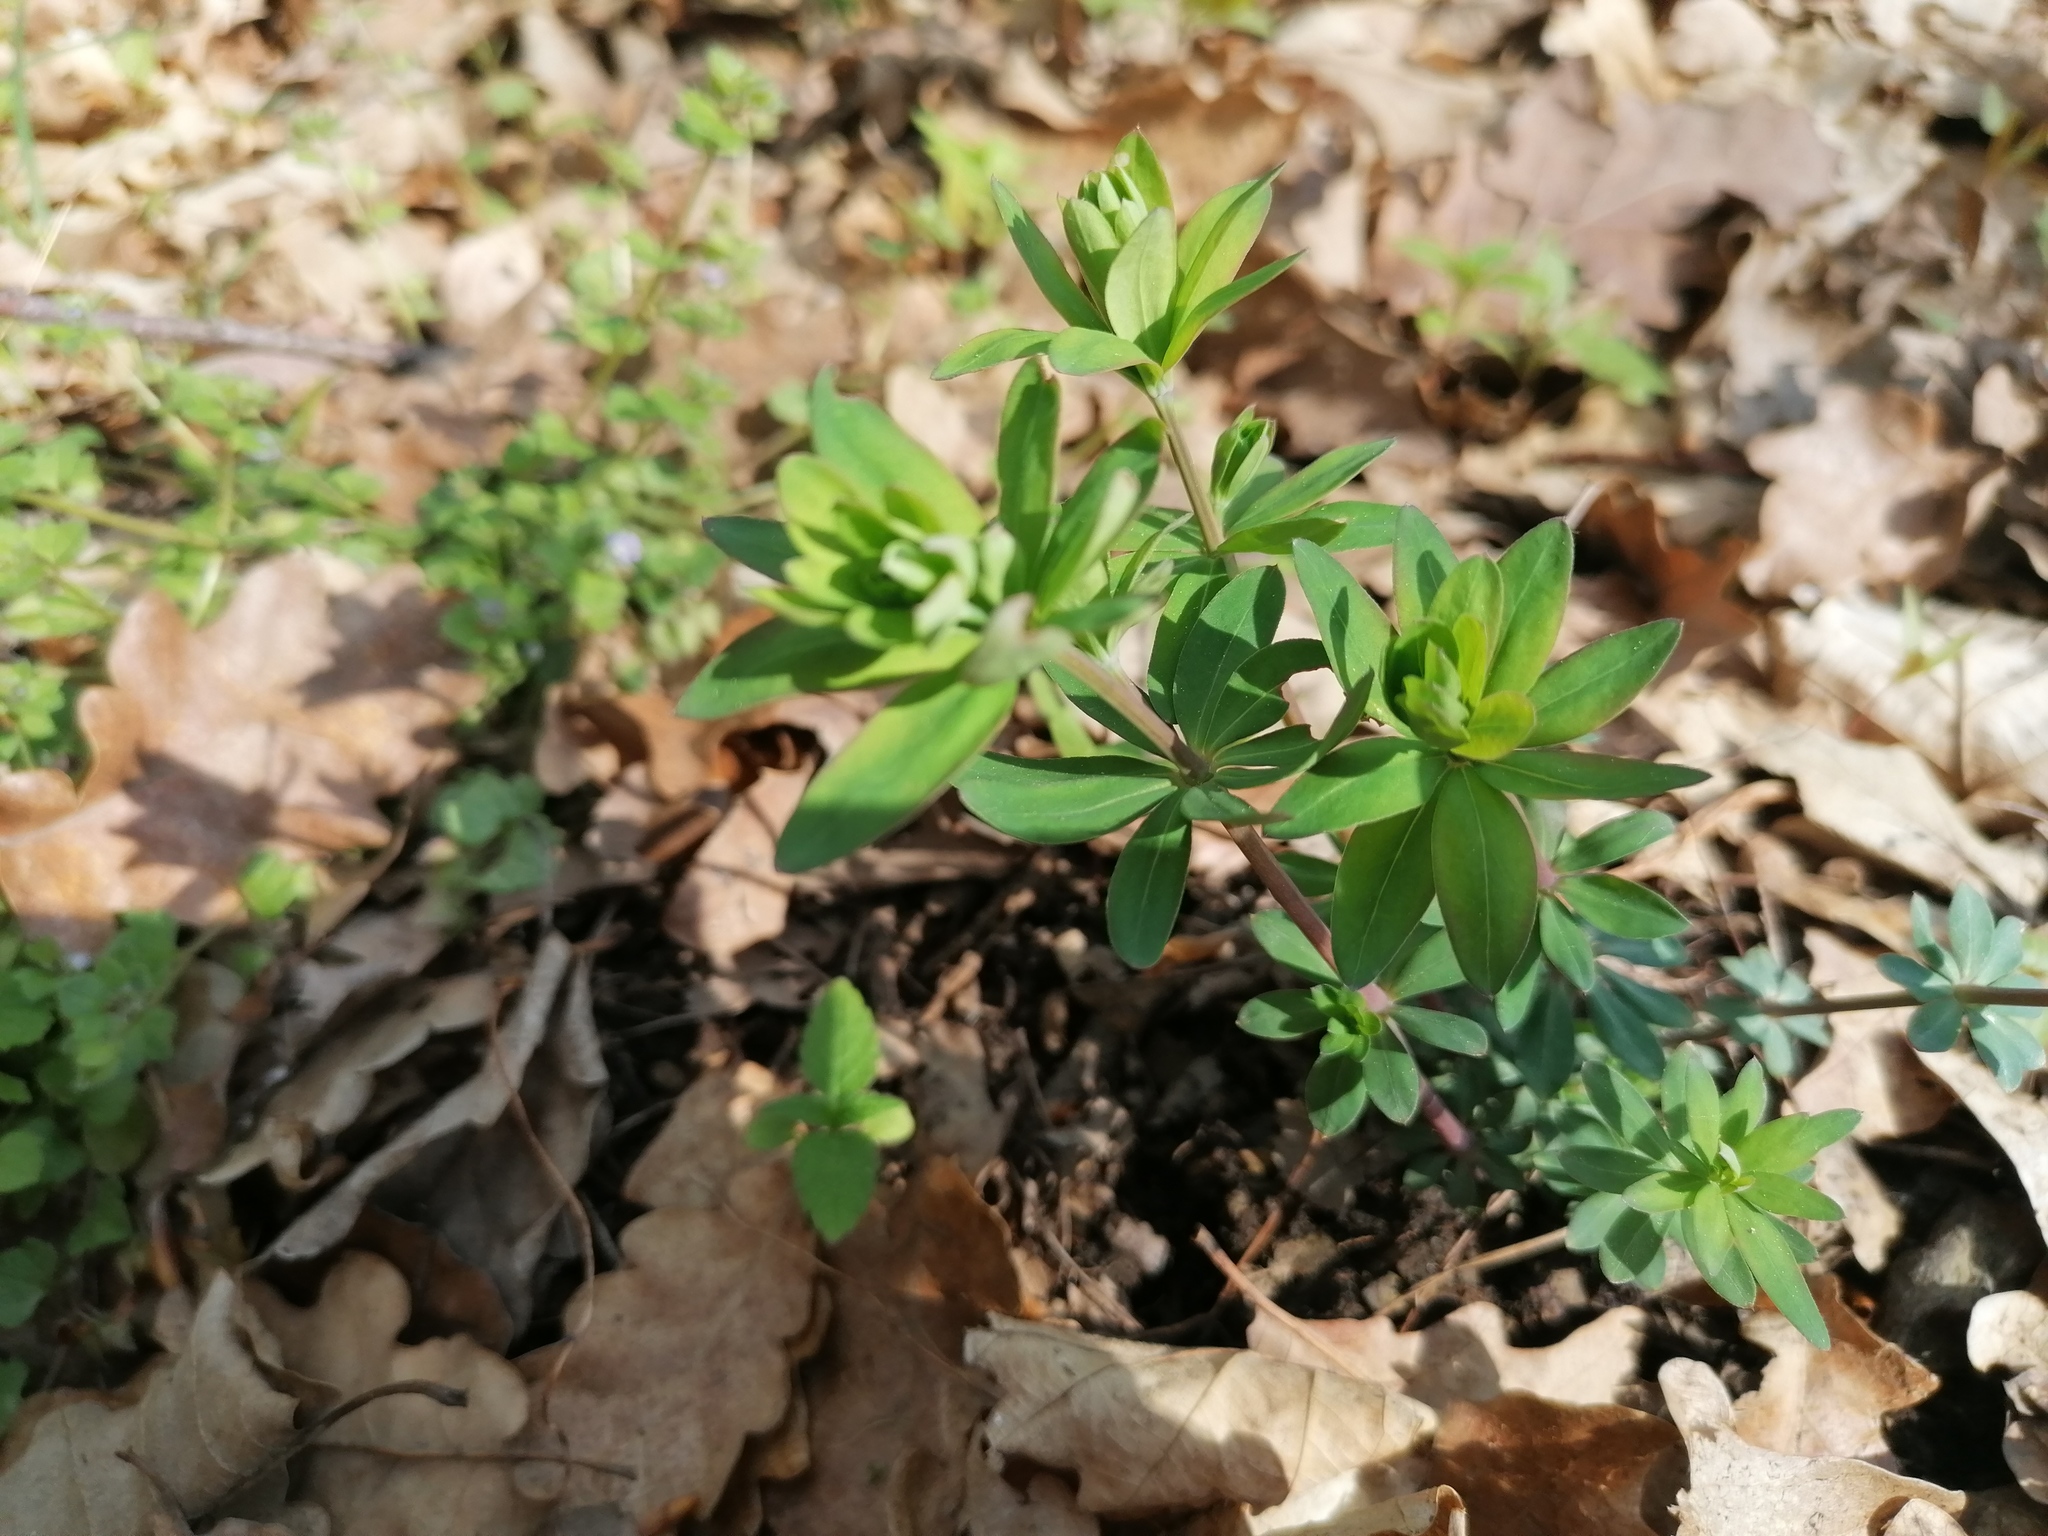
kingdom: Plantae
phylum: Tracheophyta
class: Magnoliopsida
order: Gentianales
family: Rubiaceae
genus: Galium
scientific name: Galium sylvaticum
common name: Wood bedstraw
